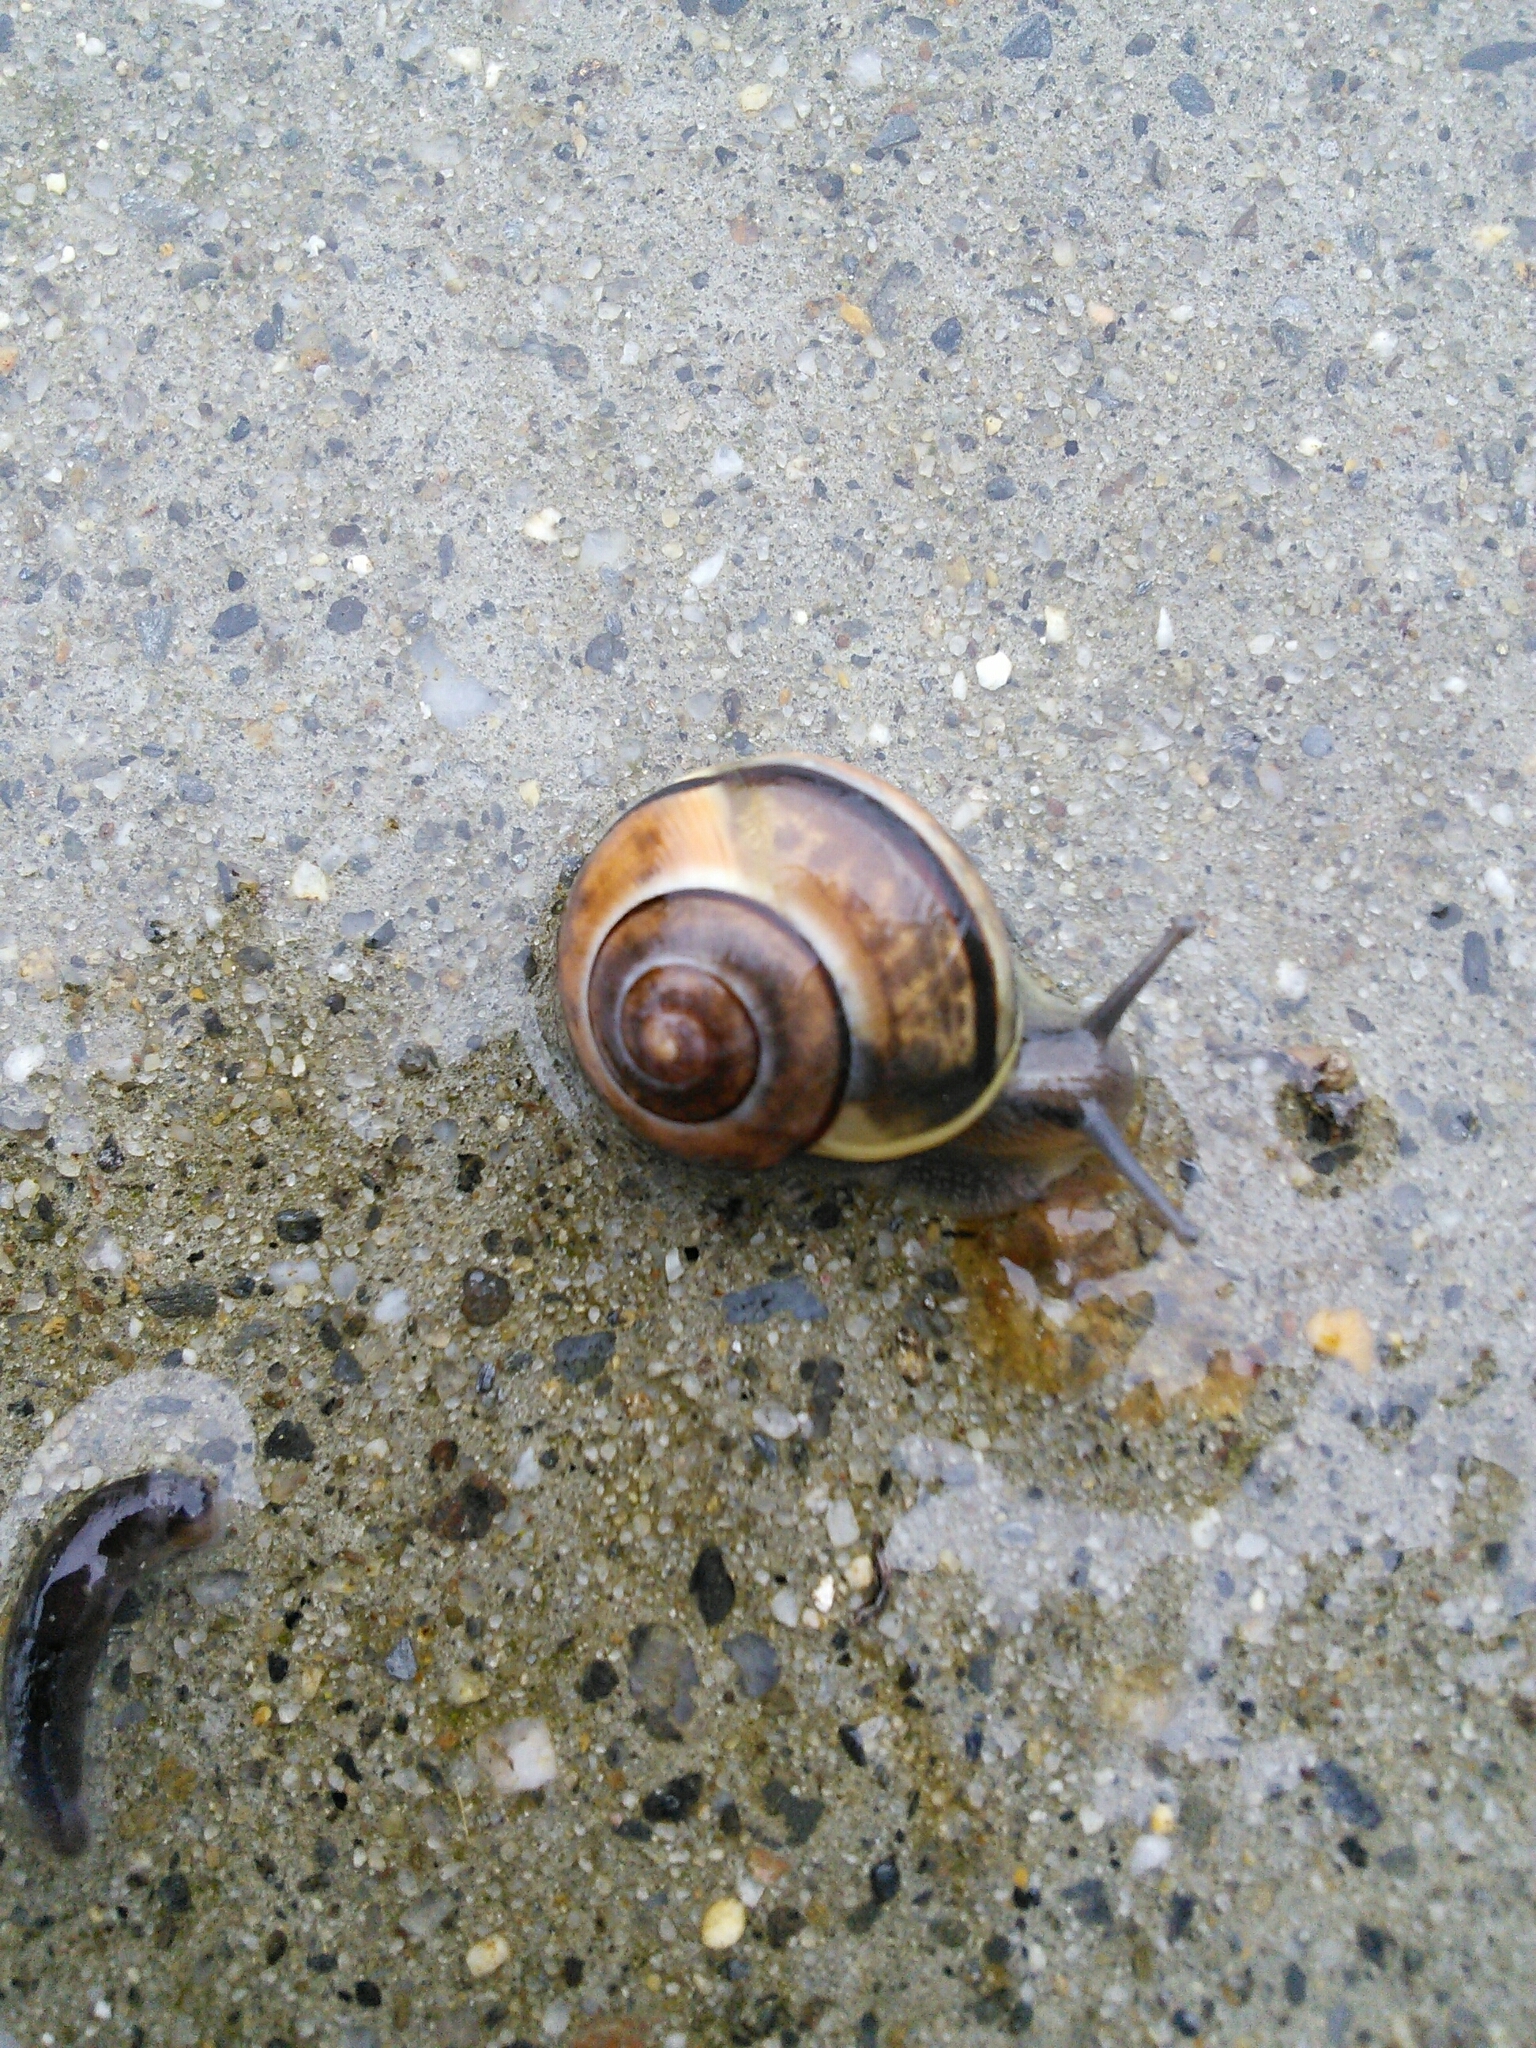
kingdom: Animalia
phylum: Mollusca
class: Gastropoda
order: Stylommatophora
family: Helicidae
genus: Cepaea
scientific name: Cepaea nemoralis
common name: Grovesnail
